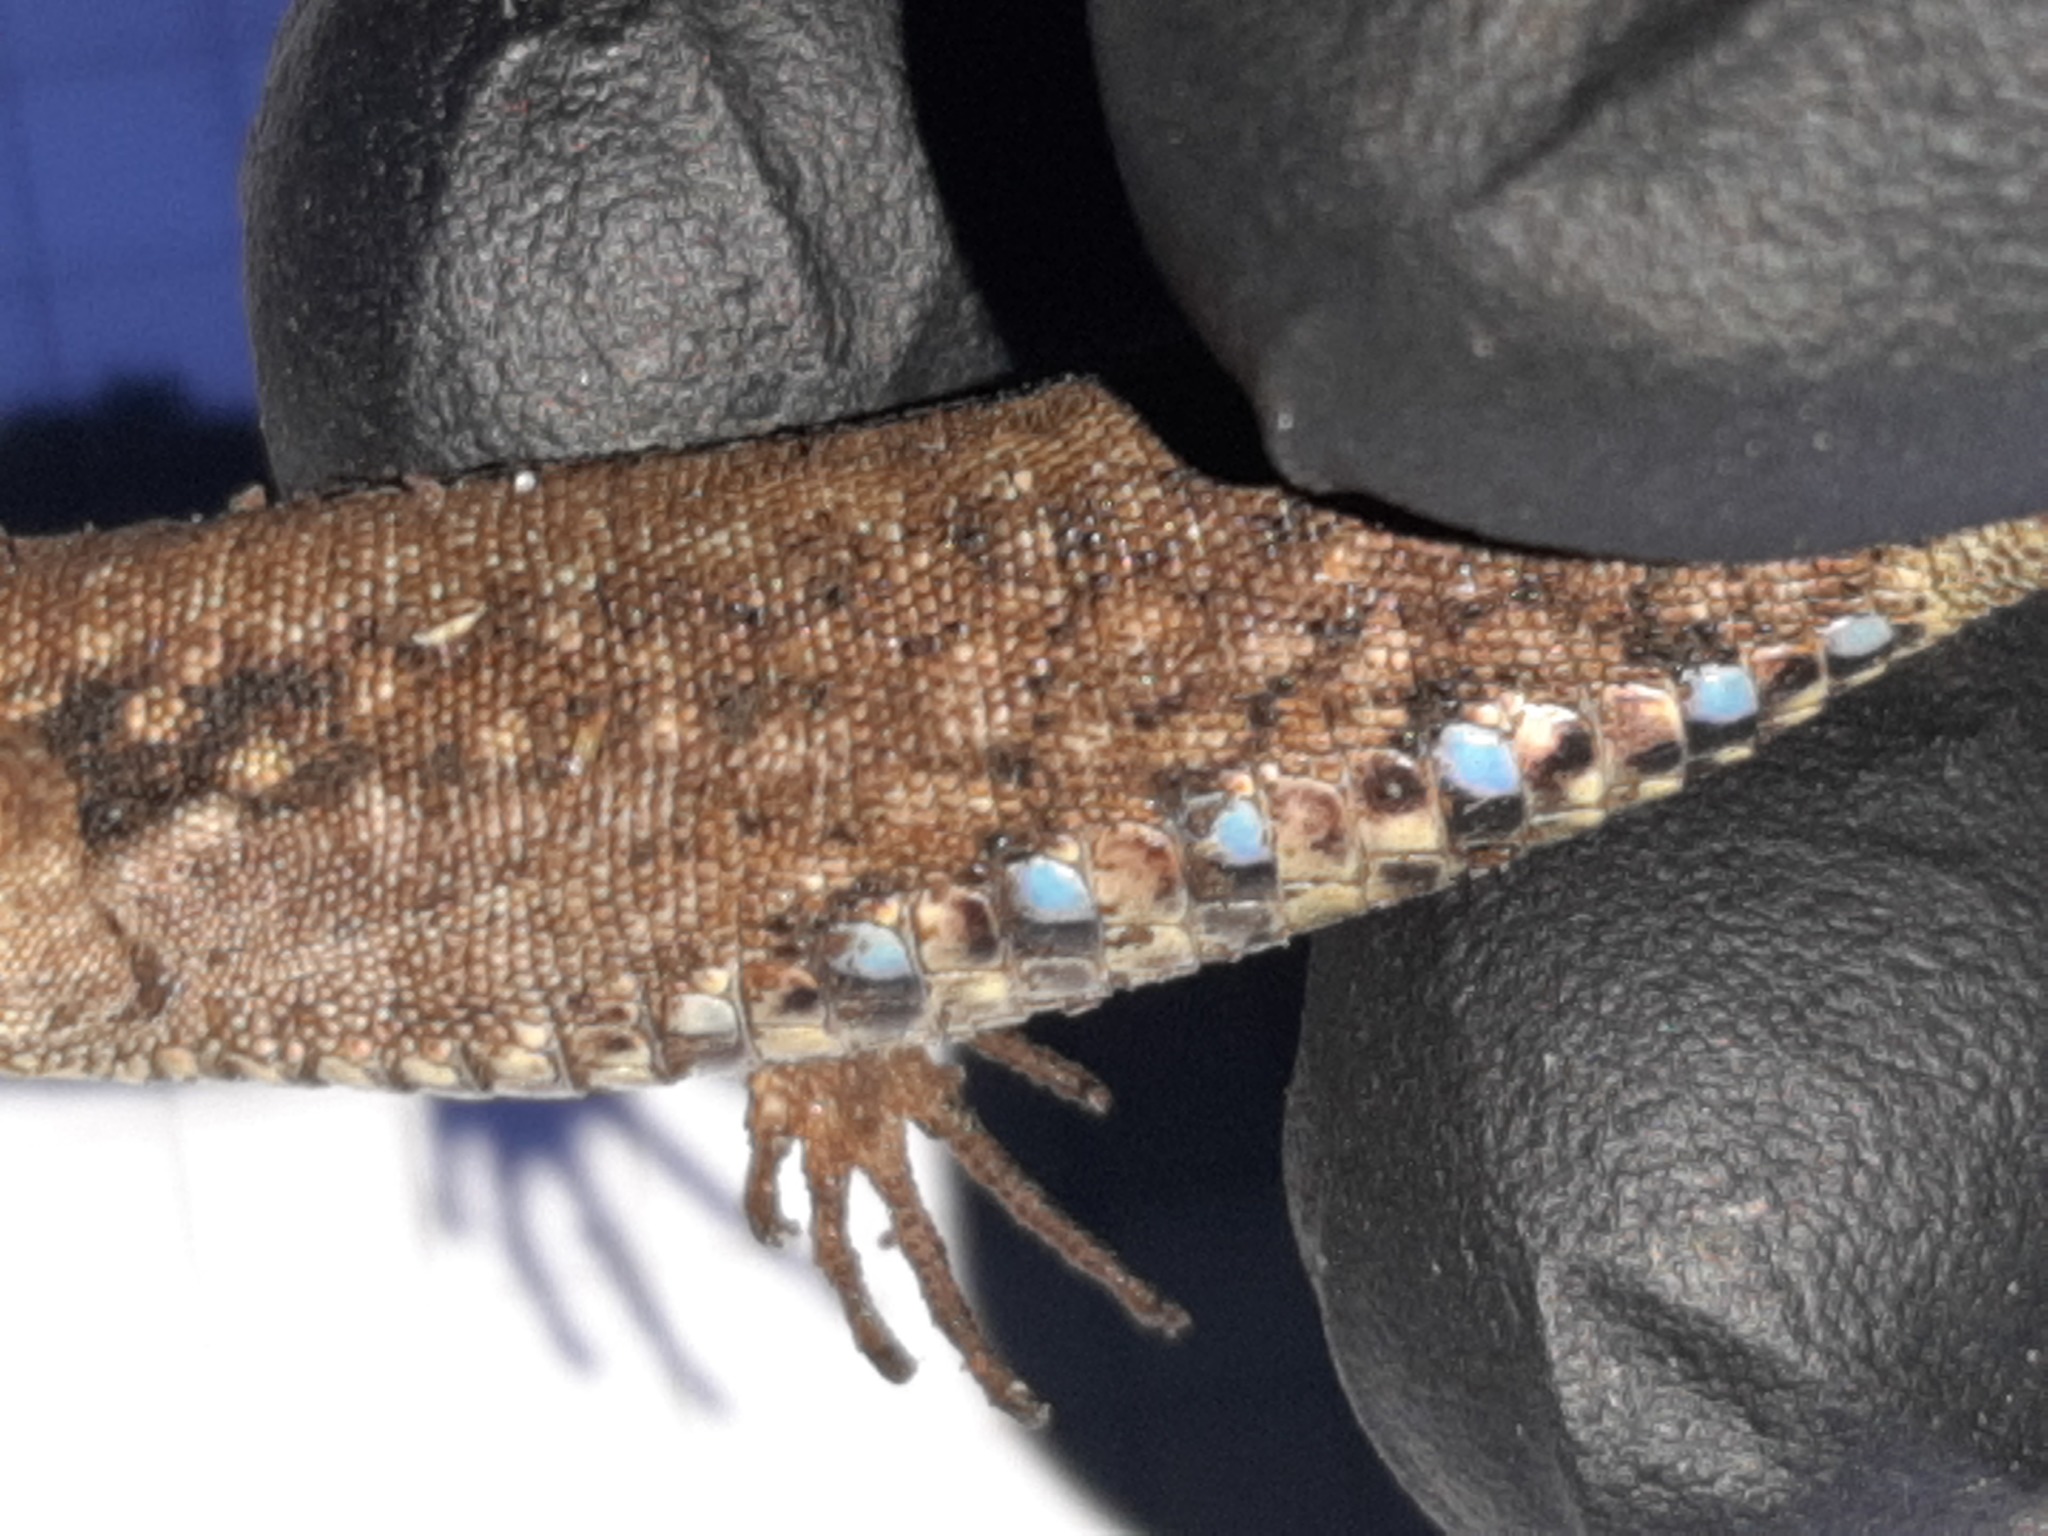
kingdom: Animalia
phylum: Chordata
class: Squamata
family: Lacertidae
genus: Podarcis
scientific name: Podarcis muralis
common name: Common wall lizard
